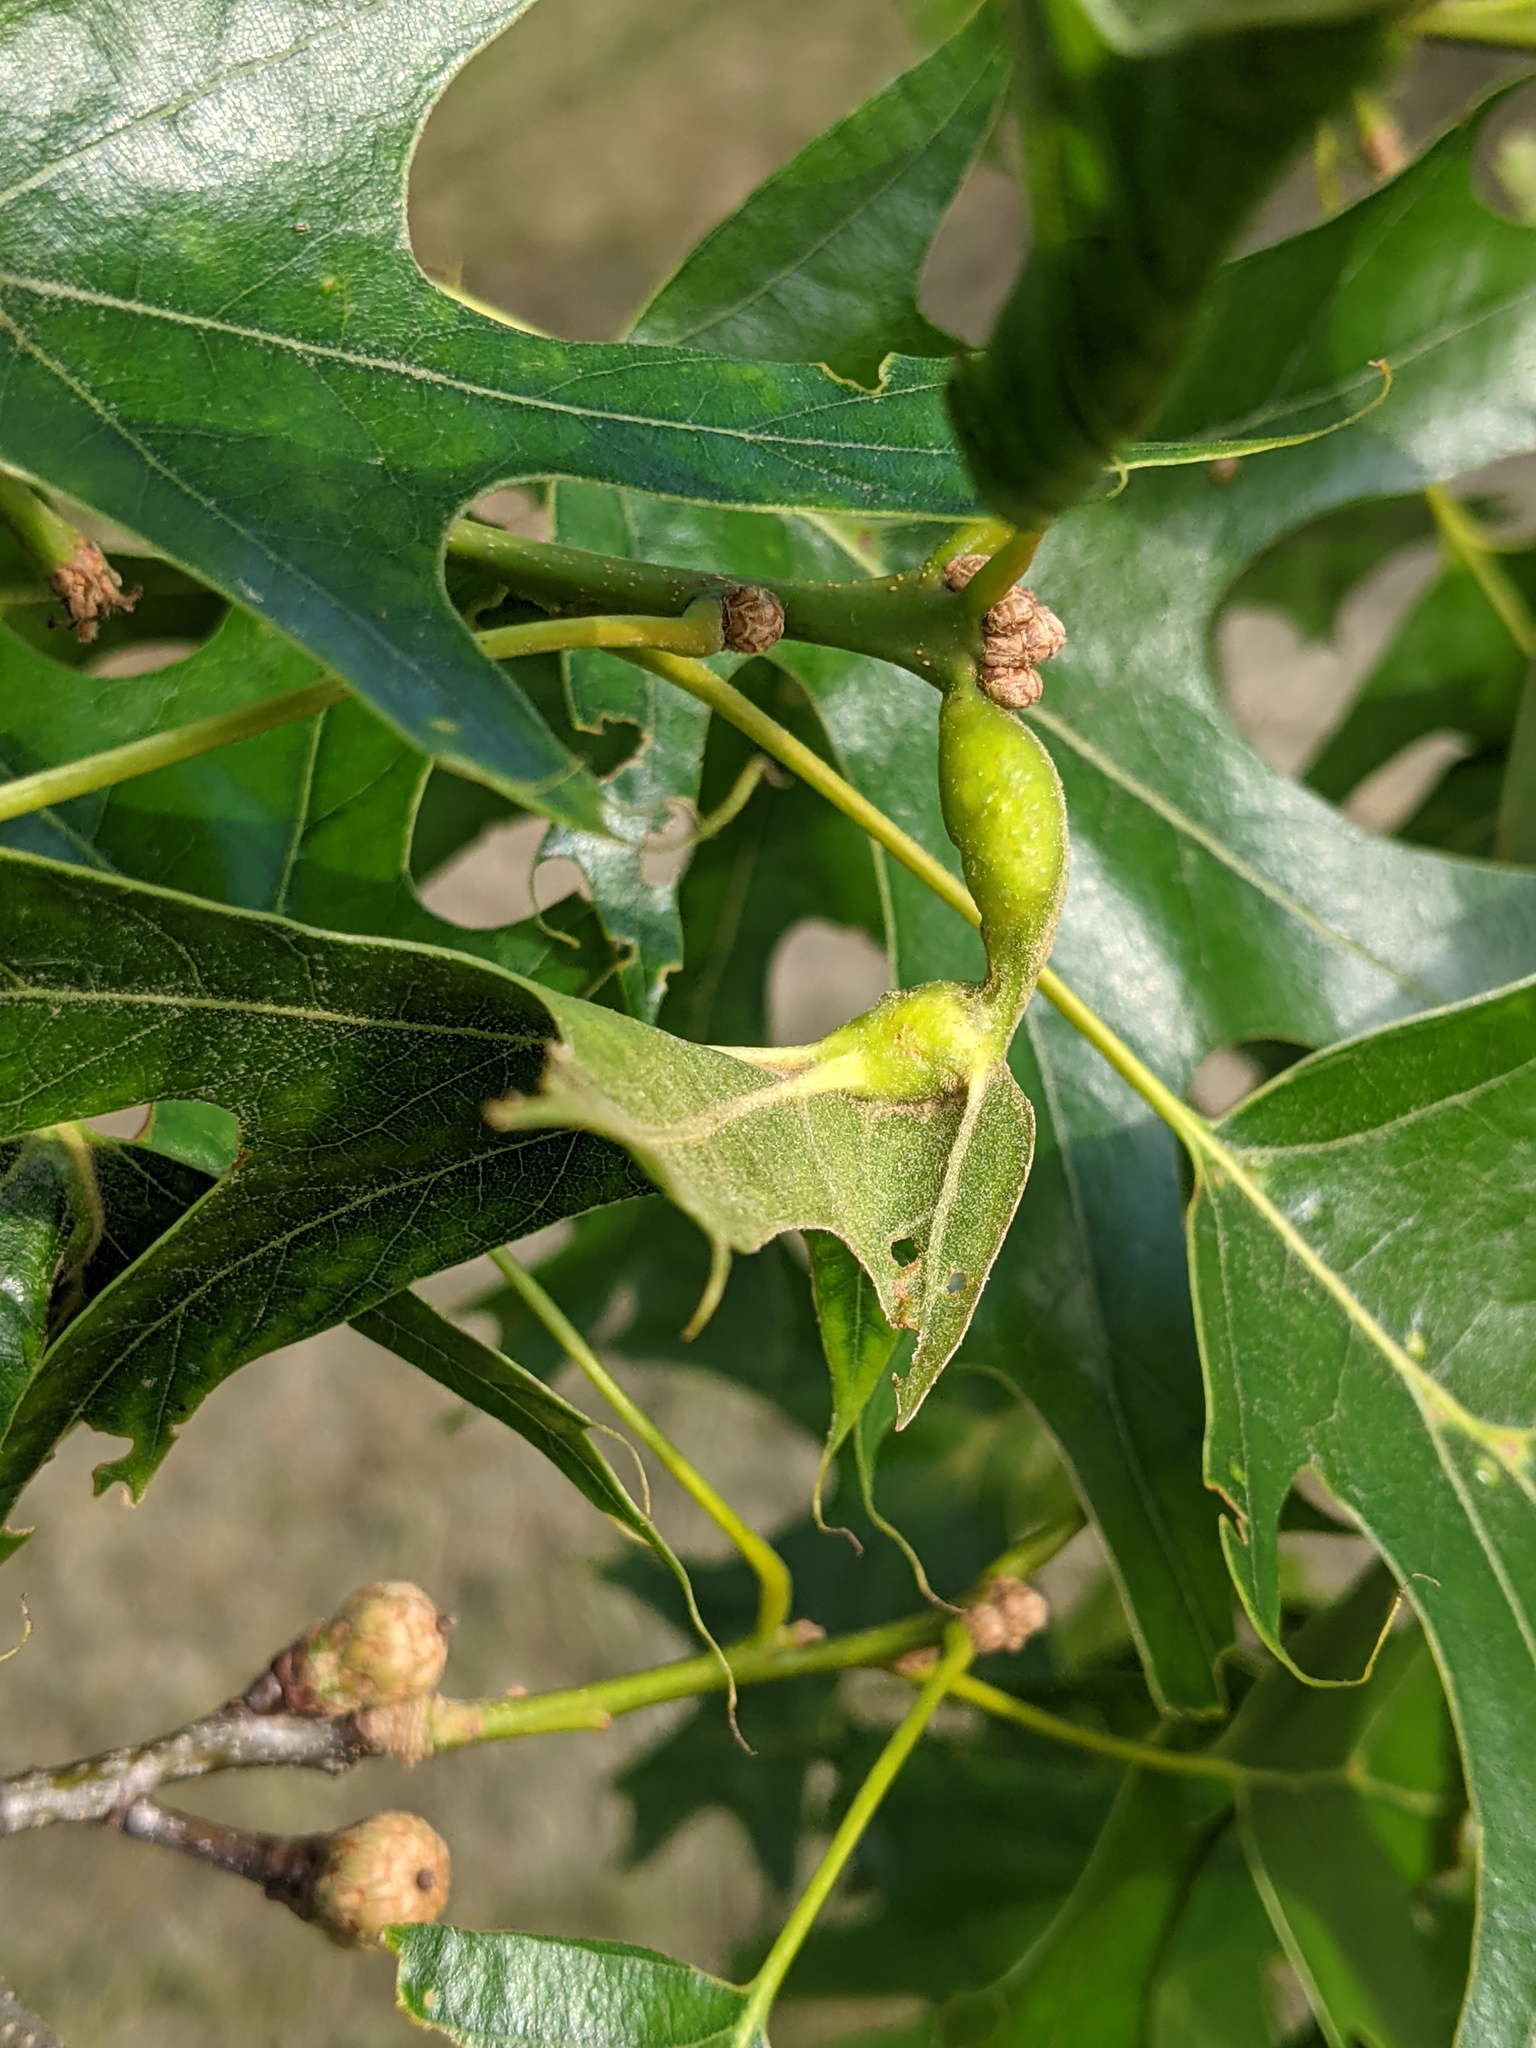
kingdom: Animalia
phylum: Arthropoda
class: Insecta
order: Hymenoptera
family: Cynipidae
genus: Melikaiella
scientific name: Melikaiella tumifica
